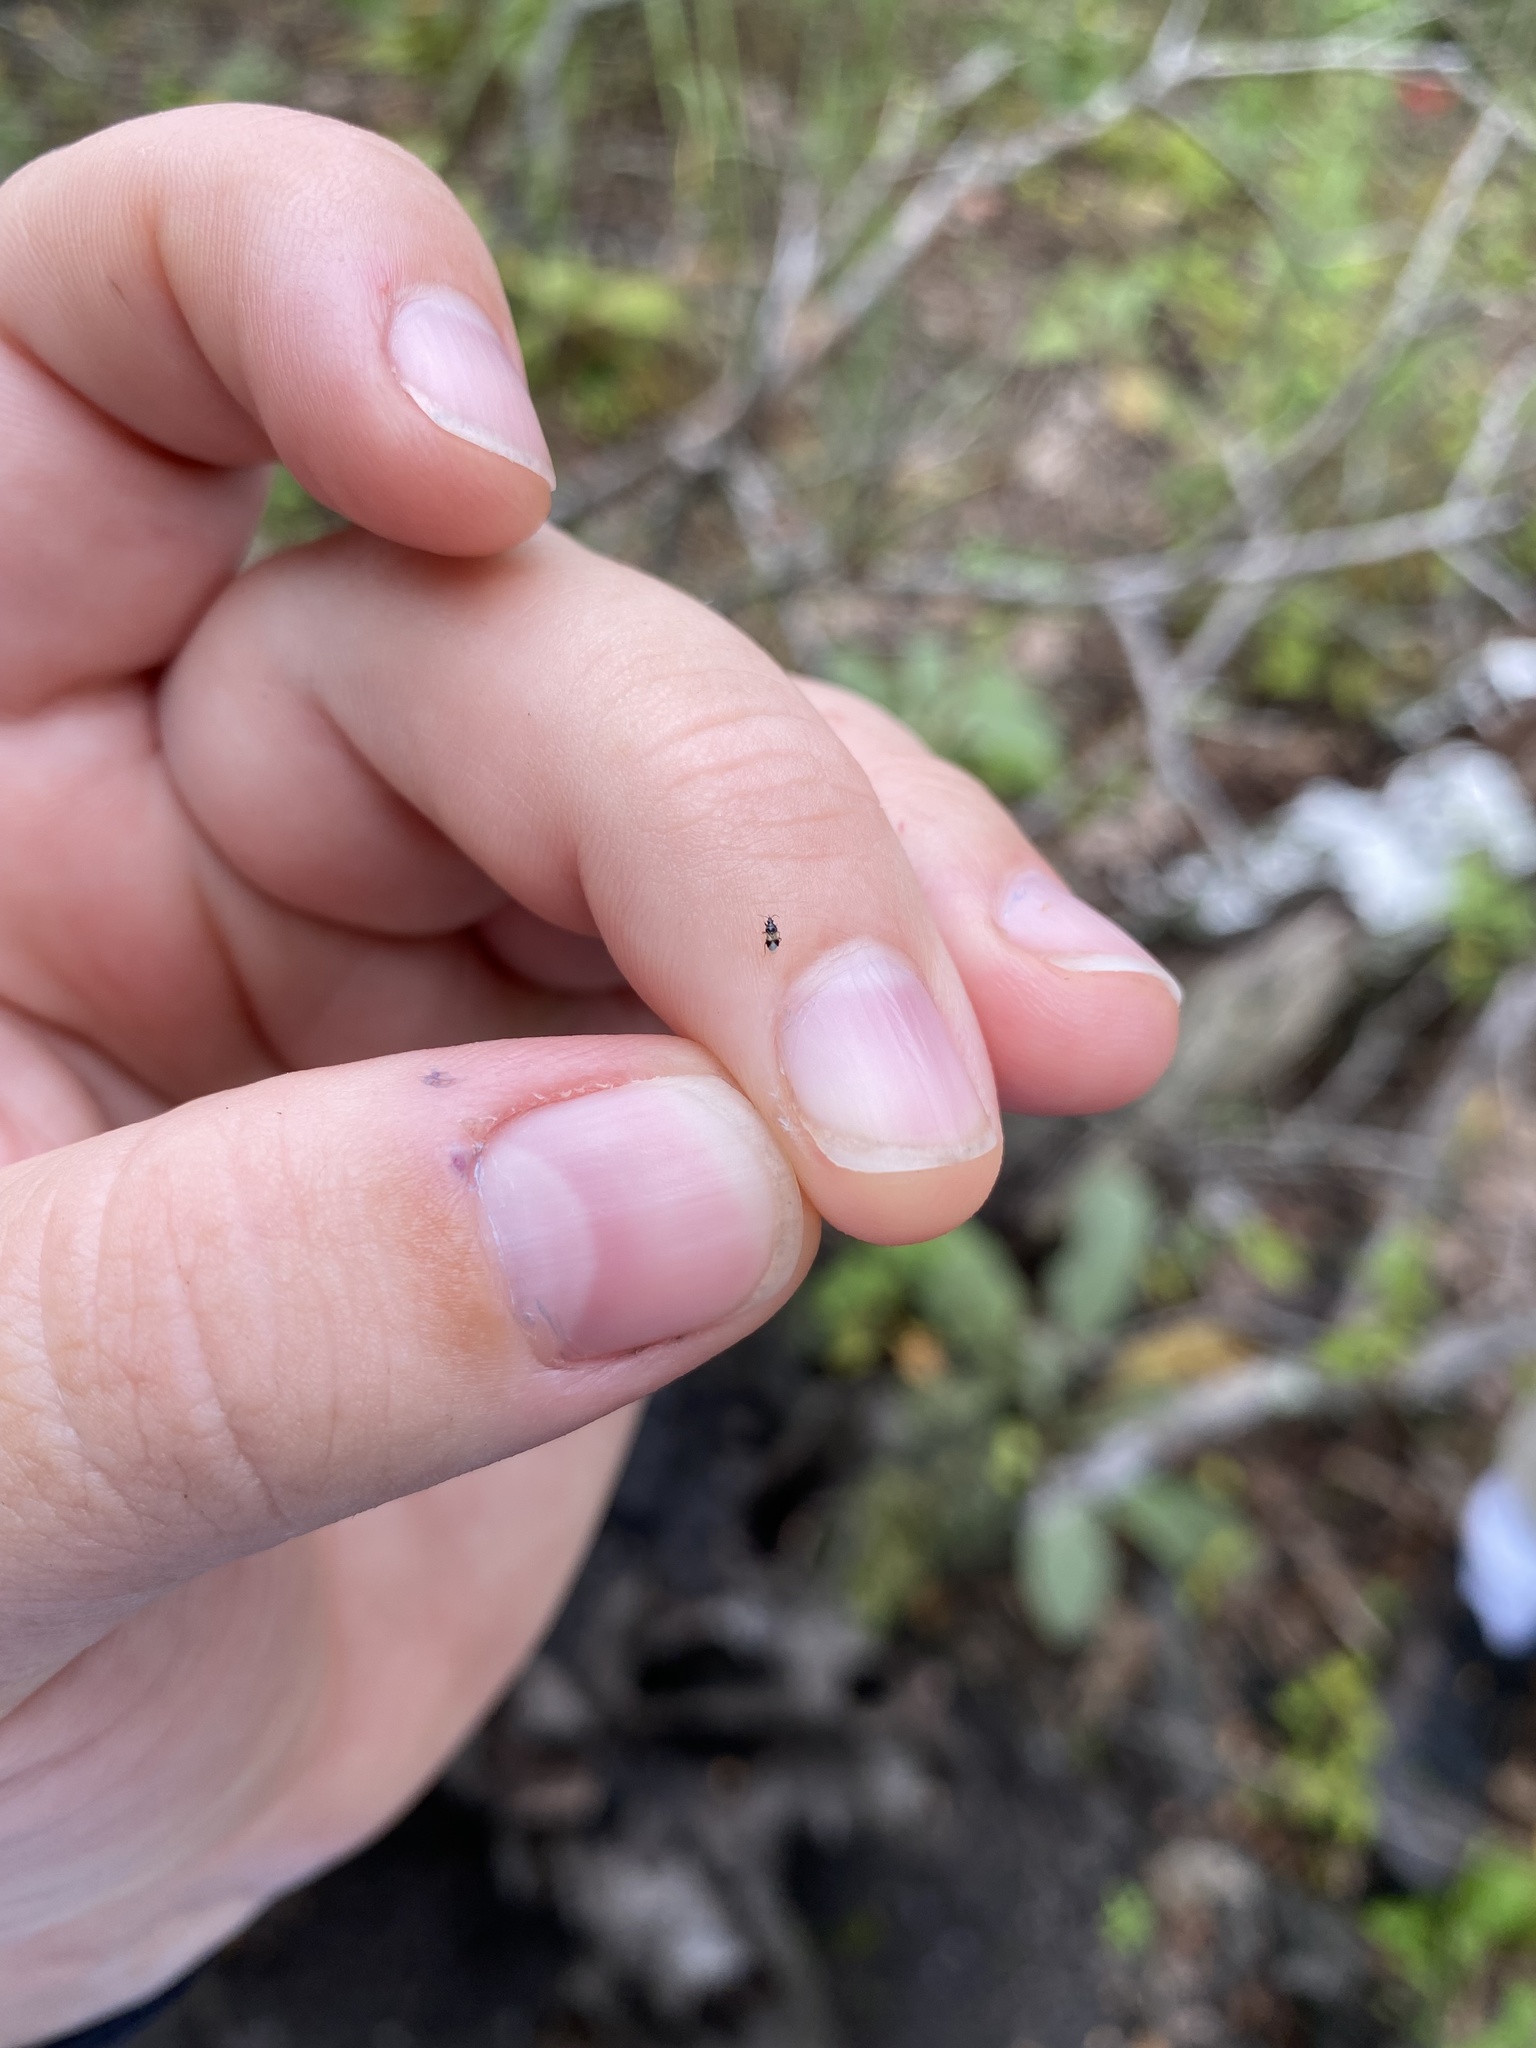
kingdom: Animalia
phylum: Arthropoda
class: Insecta
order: Hemiptera
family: Anthocoridae
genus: Orius
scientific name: Orius insidiosus
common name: Insidious flower bug
